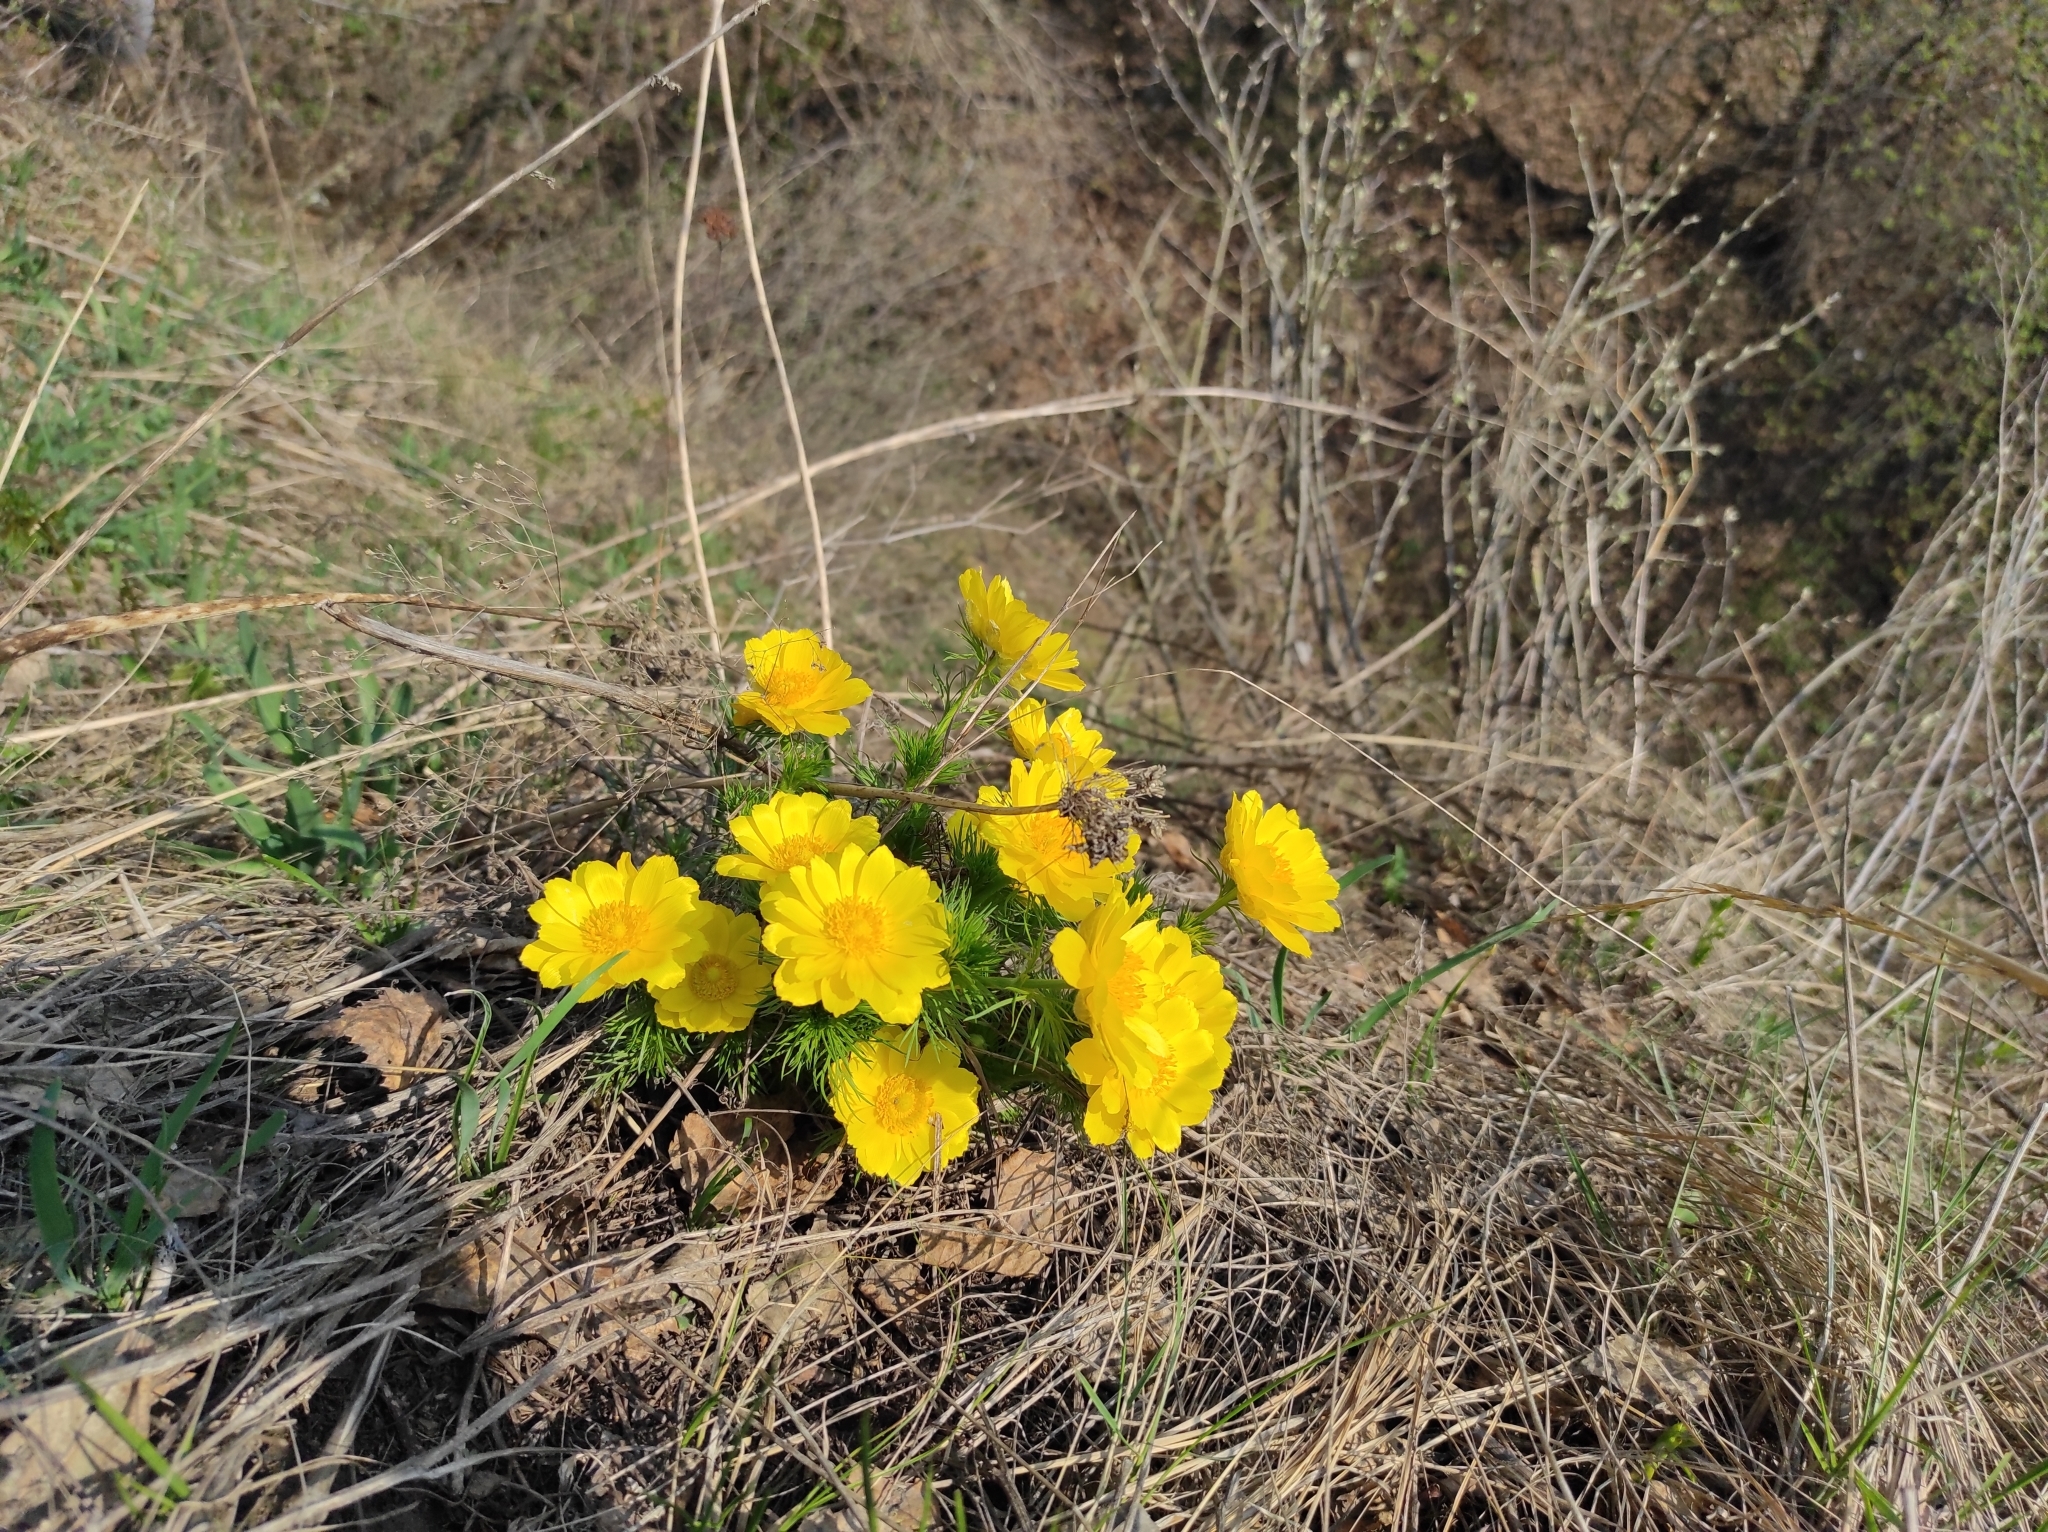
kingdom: Plantae
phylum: Tracheophyta
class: Magnoliopsida
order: Ranunculales
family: Ranunculaceae
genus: Adonis
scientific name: Adonis vernalis
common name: Yellow pheasants-eye
